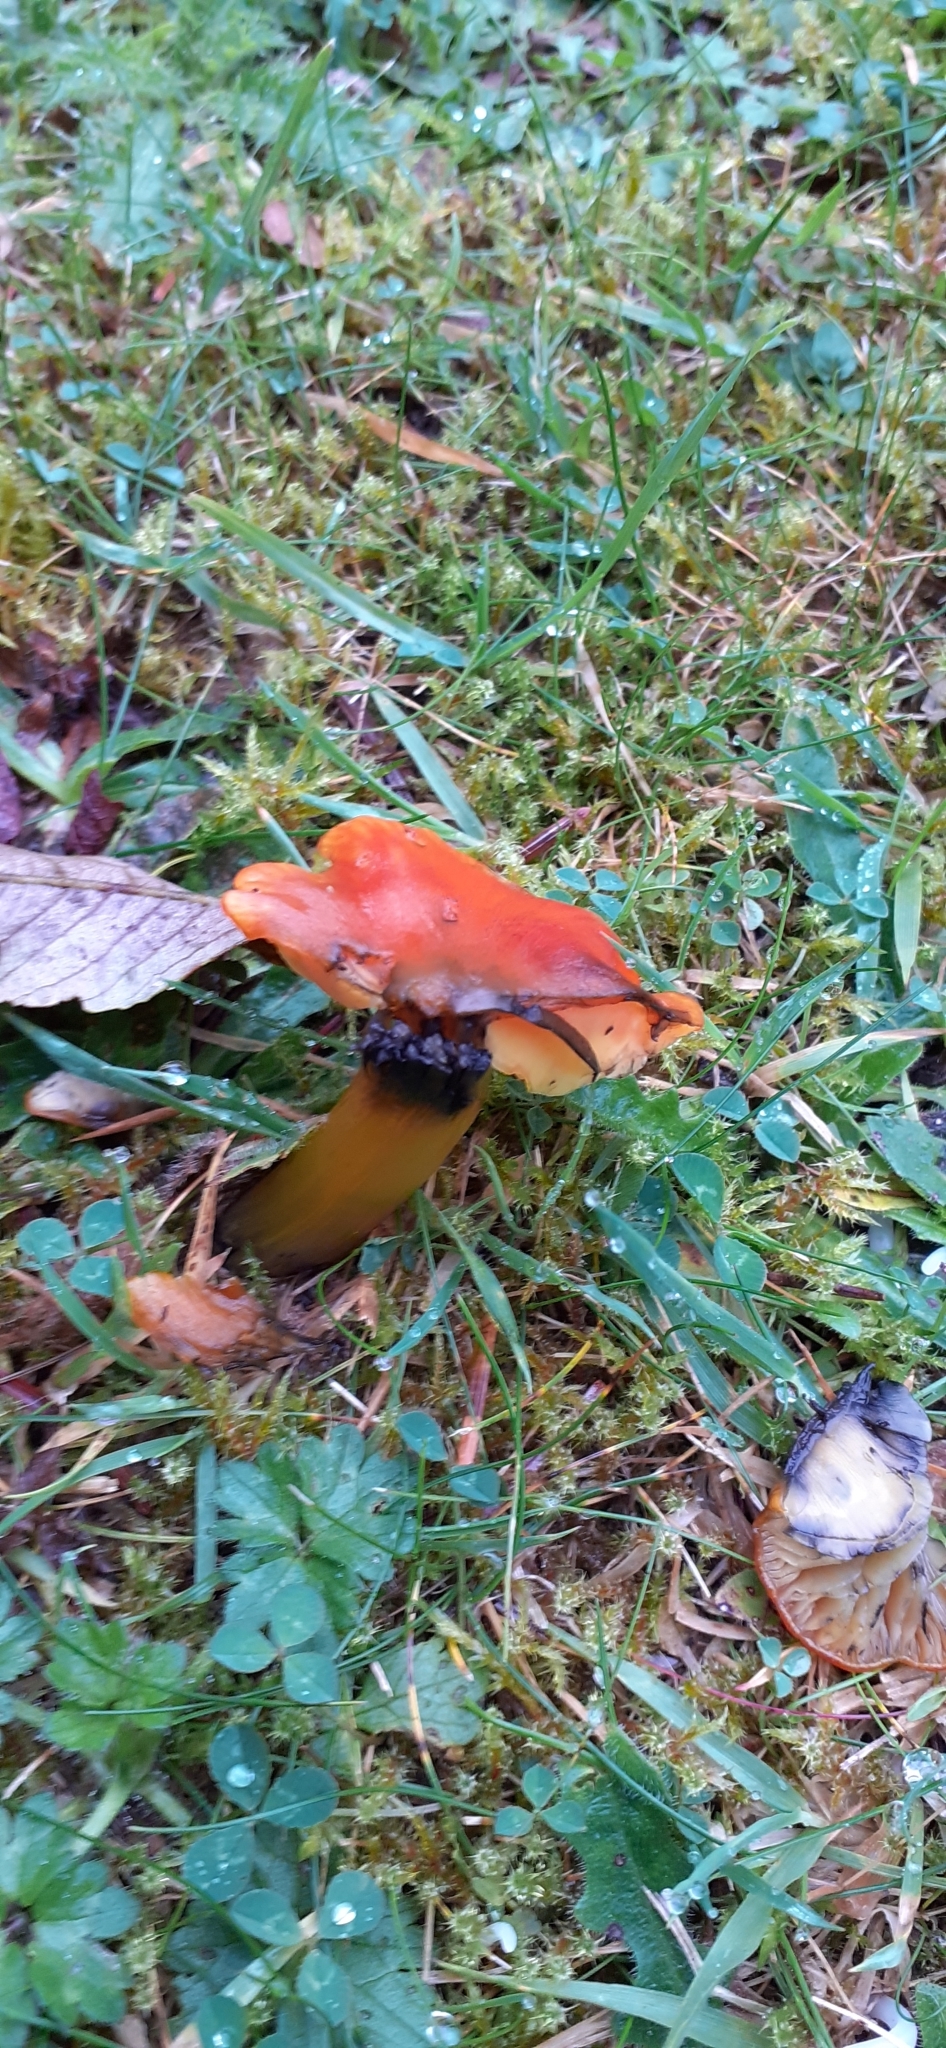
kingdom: Fungi
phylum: Basidiomycota
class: Agaricomycetes
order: Agaricales
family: Hygrophoraceae
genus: Hygrocybe
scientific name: Hygrocybe conica
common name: Blackening wax-cap
